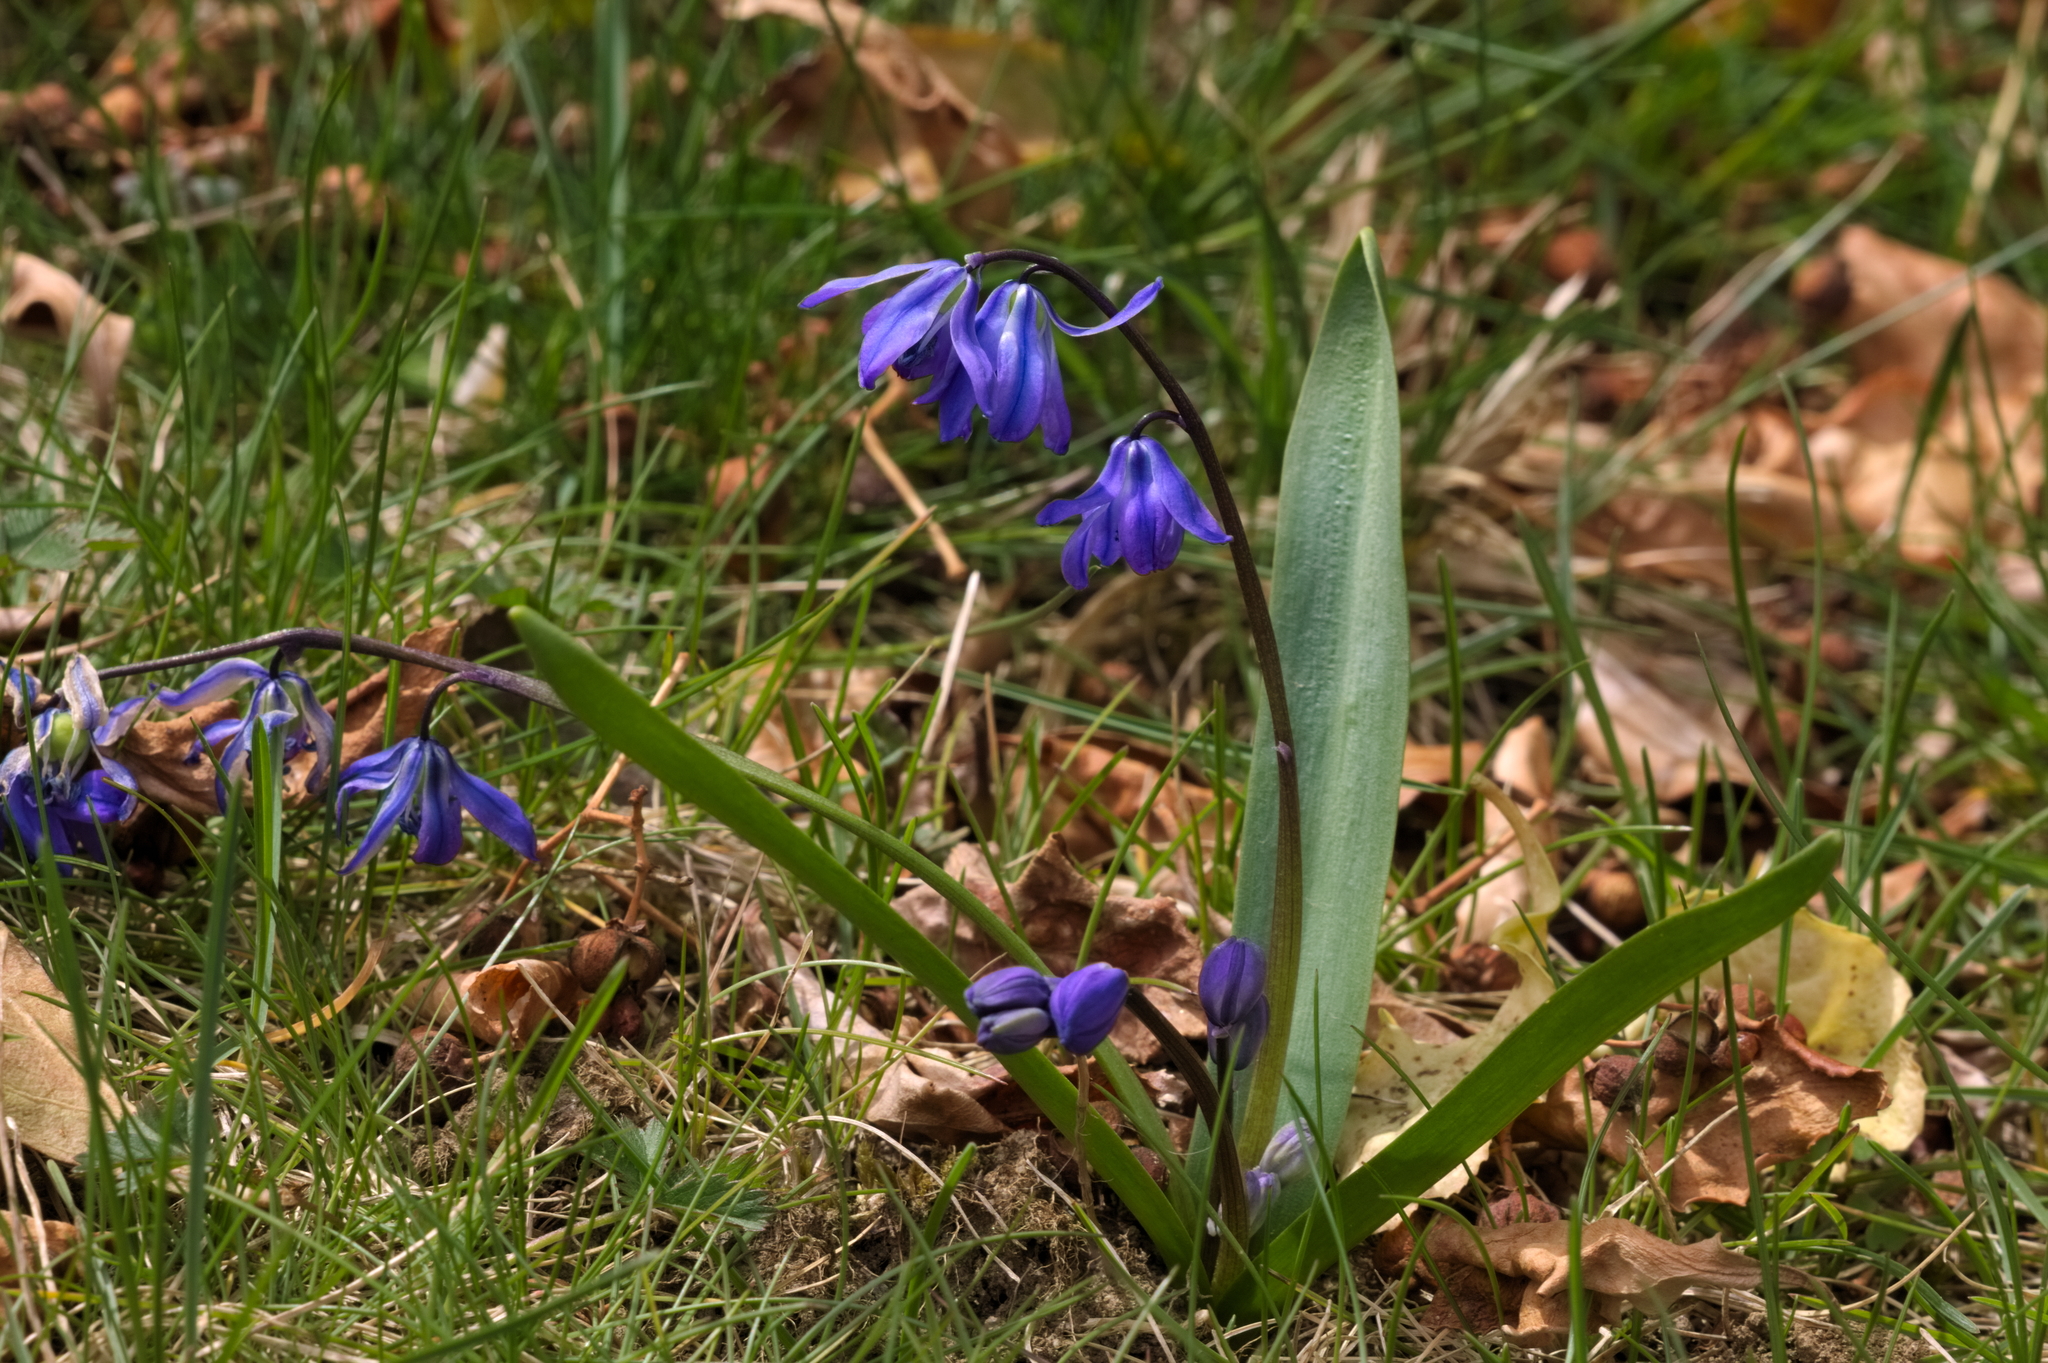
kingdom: Plantae
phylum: Tracheophyta
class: Liliopsida
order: Asparagales
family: Asparagaceae
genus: Scilla
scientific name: Scilla siberica
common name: Siberian squill
